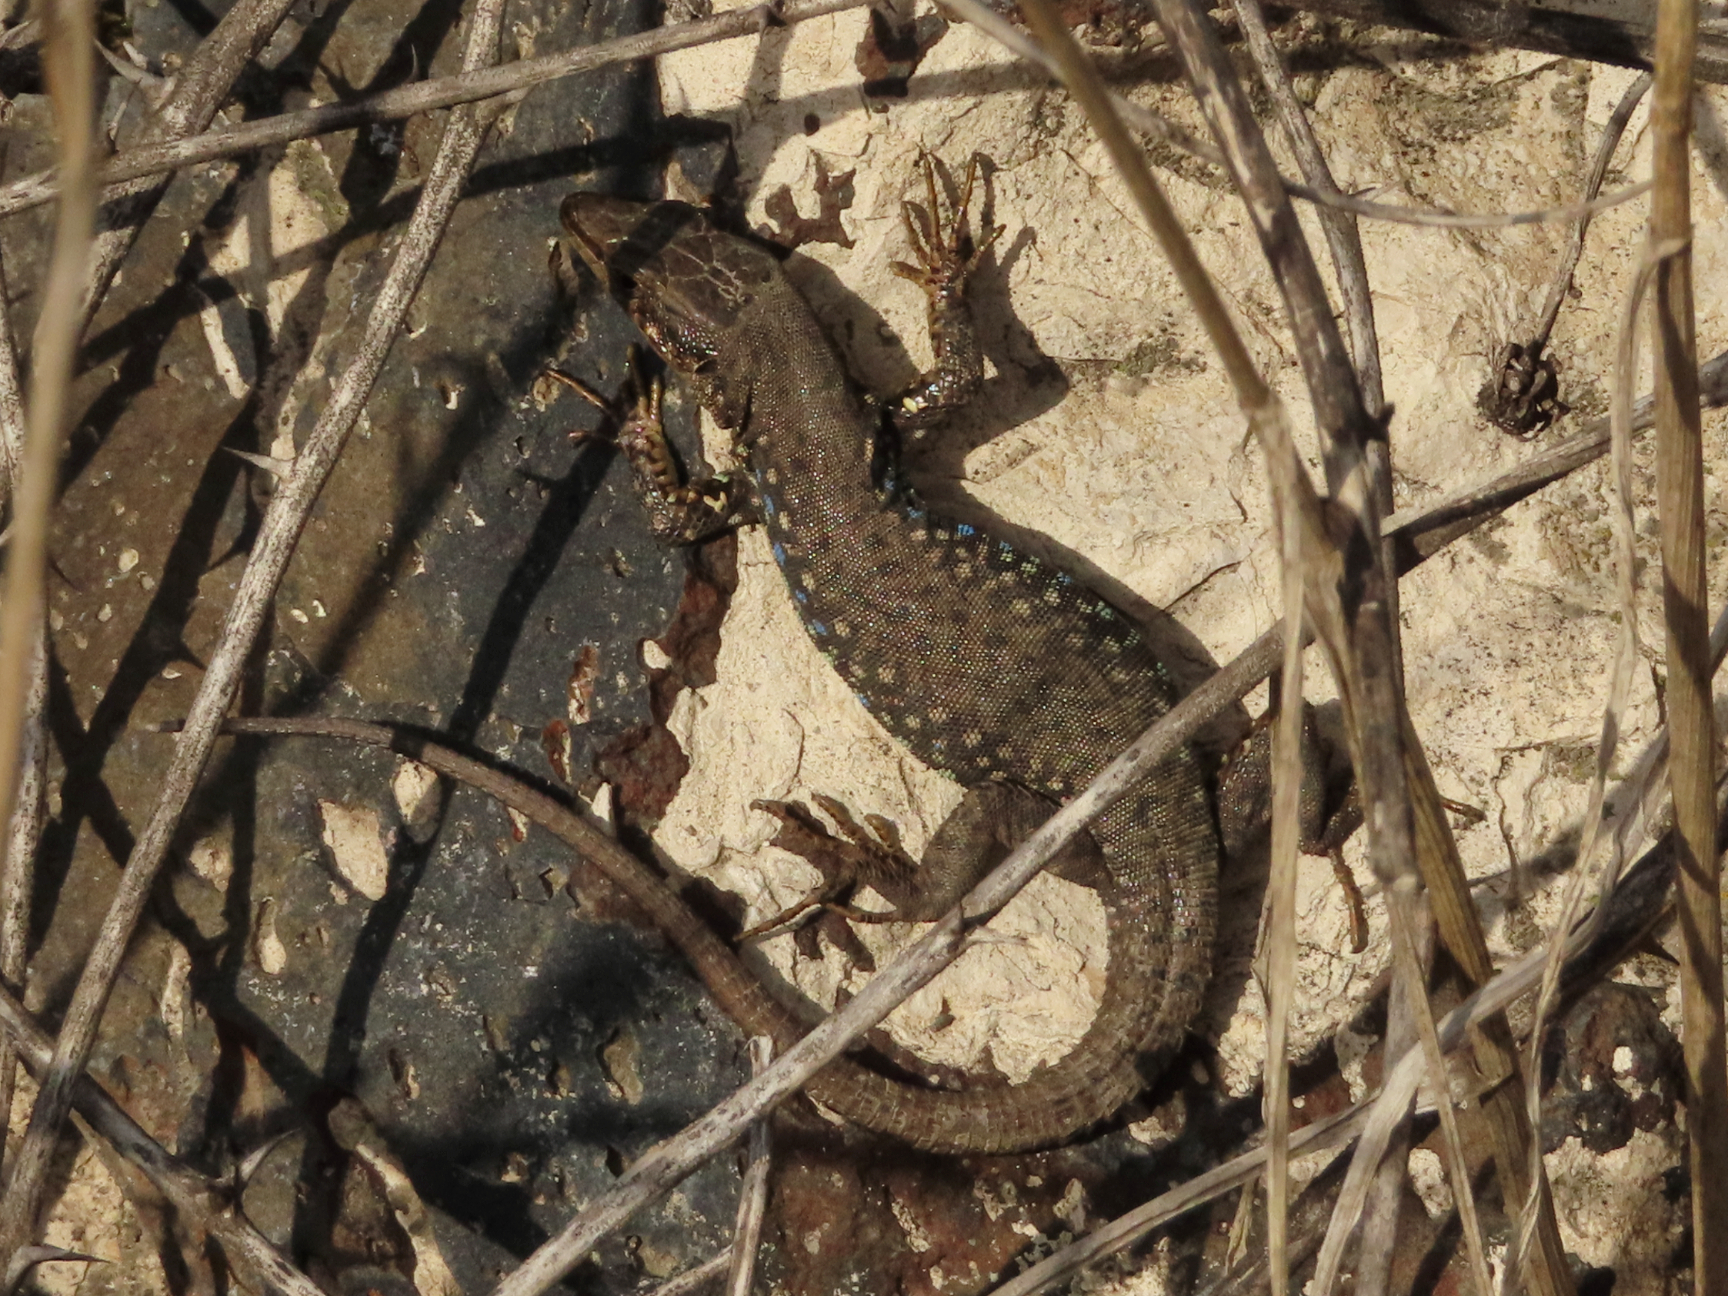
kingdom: Animalia
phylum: Chordata
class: Squamata
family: Lacertidae
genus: Darevskia
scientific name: Darevskia
